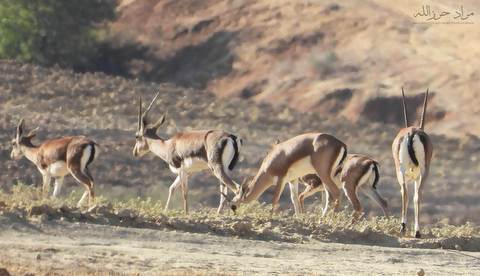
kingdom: Animalia
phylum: Chordata
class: Mammalia
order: Artiodactyla
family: Bovidae
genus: Gazella
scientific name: Gazella cuvieri
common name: Cuvier's gazelle
